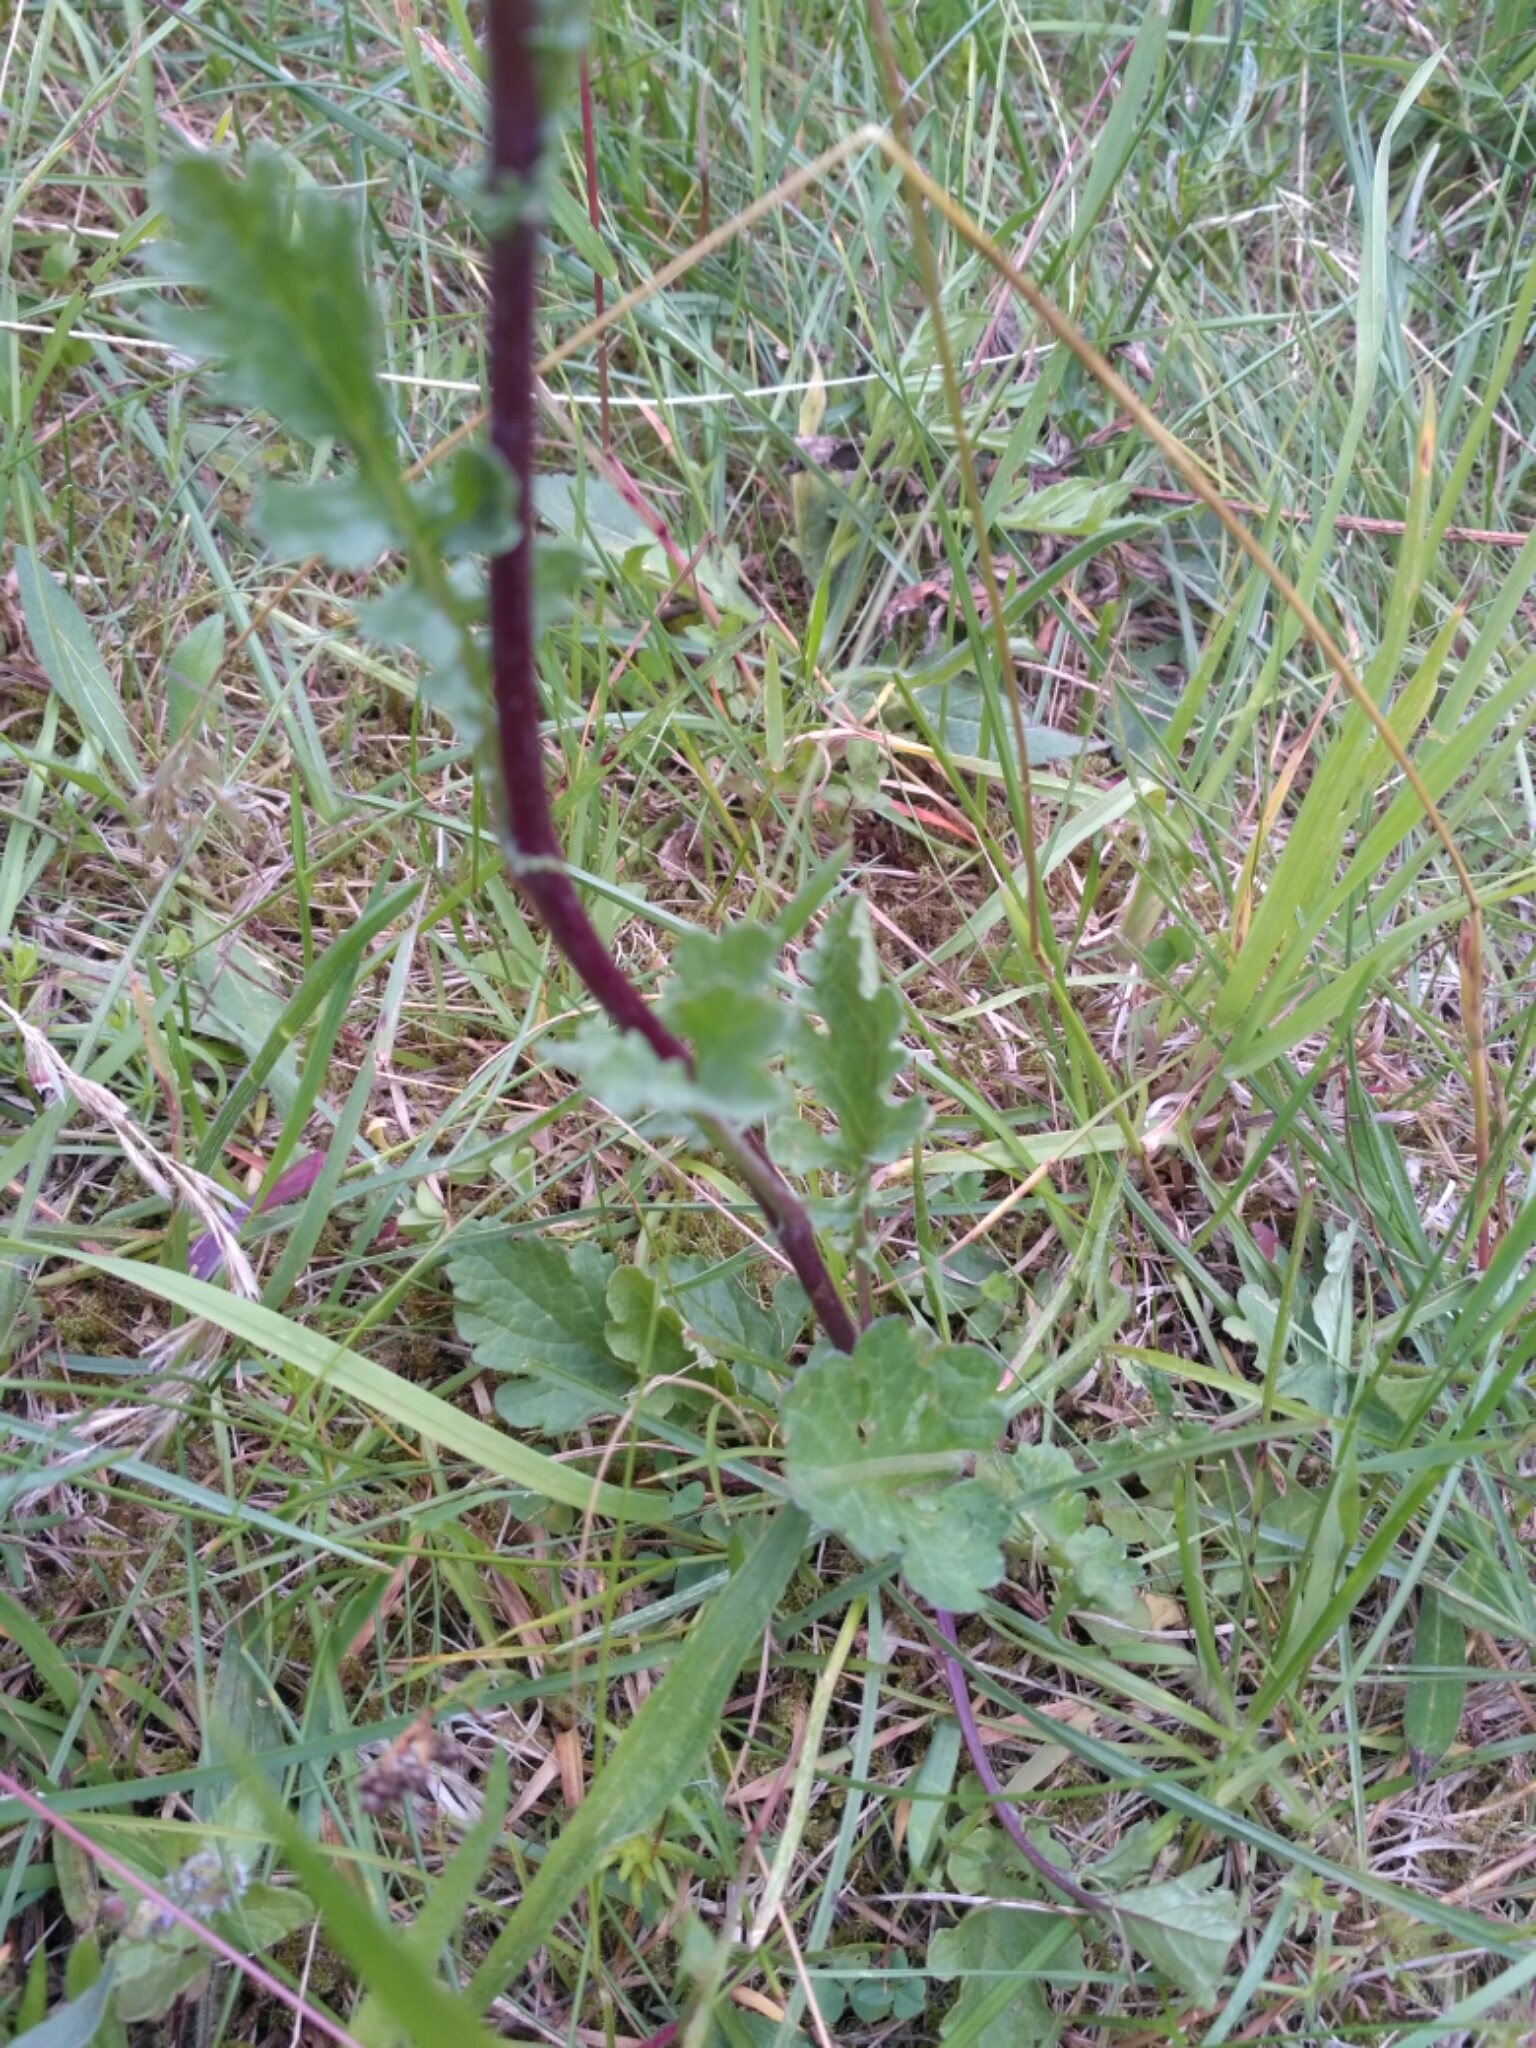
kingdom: Plantae
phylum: Tracheophyta
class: Magnoliopsida
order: Asterales
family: Asteraceae
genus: Jacobaea
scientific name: Jacobaea vulgaris
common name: Stinking willie
